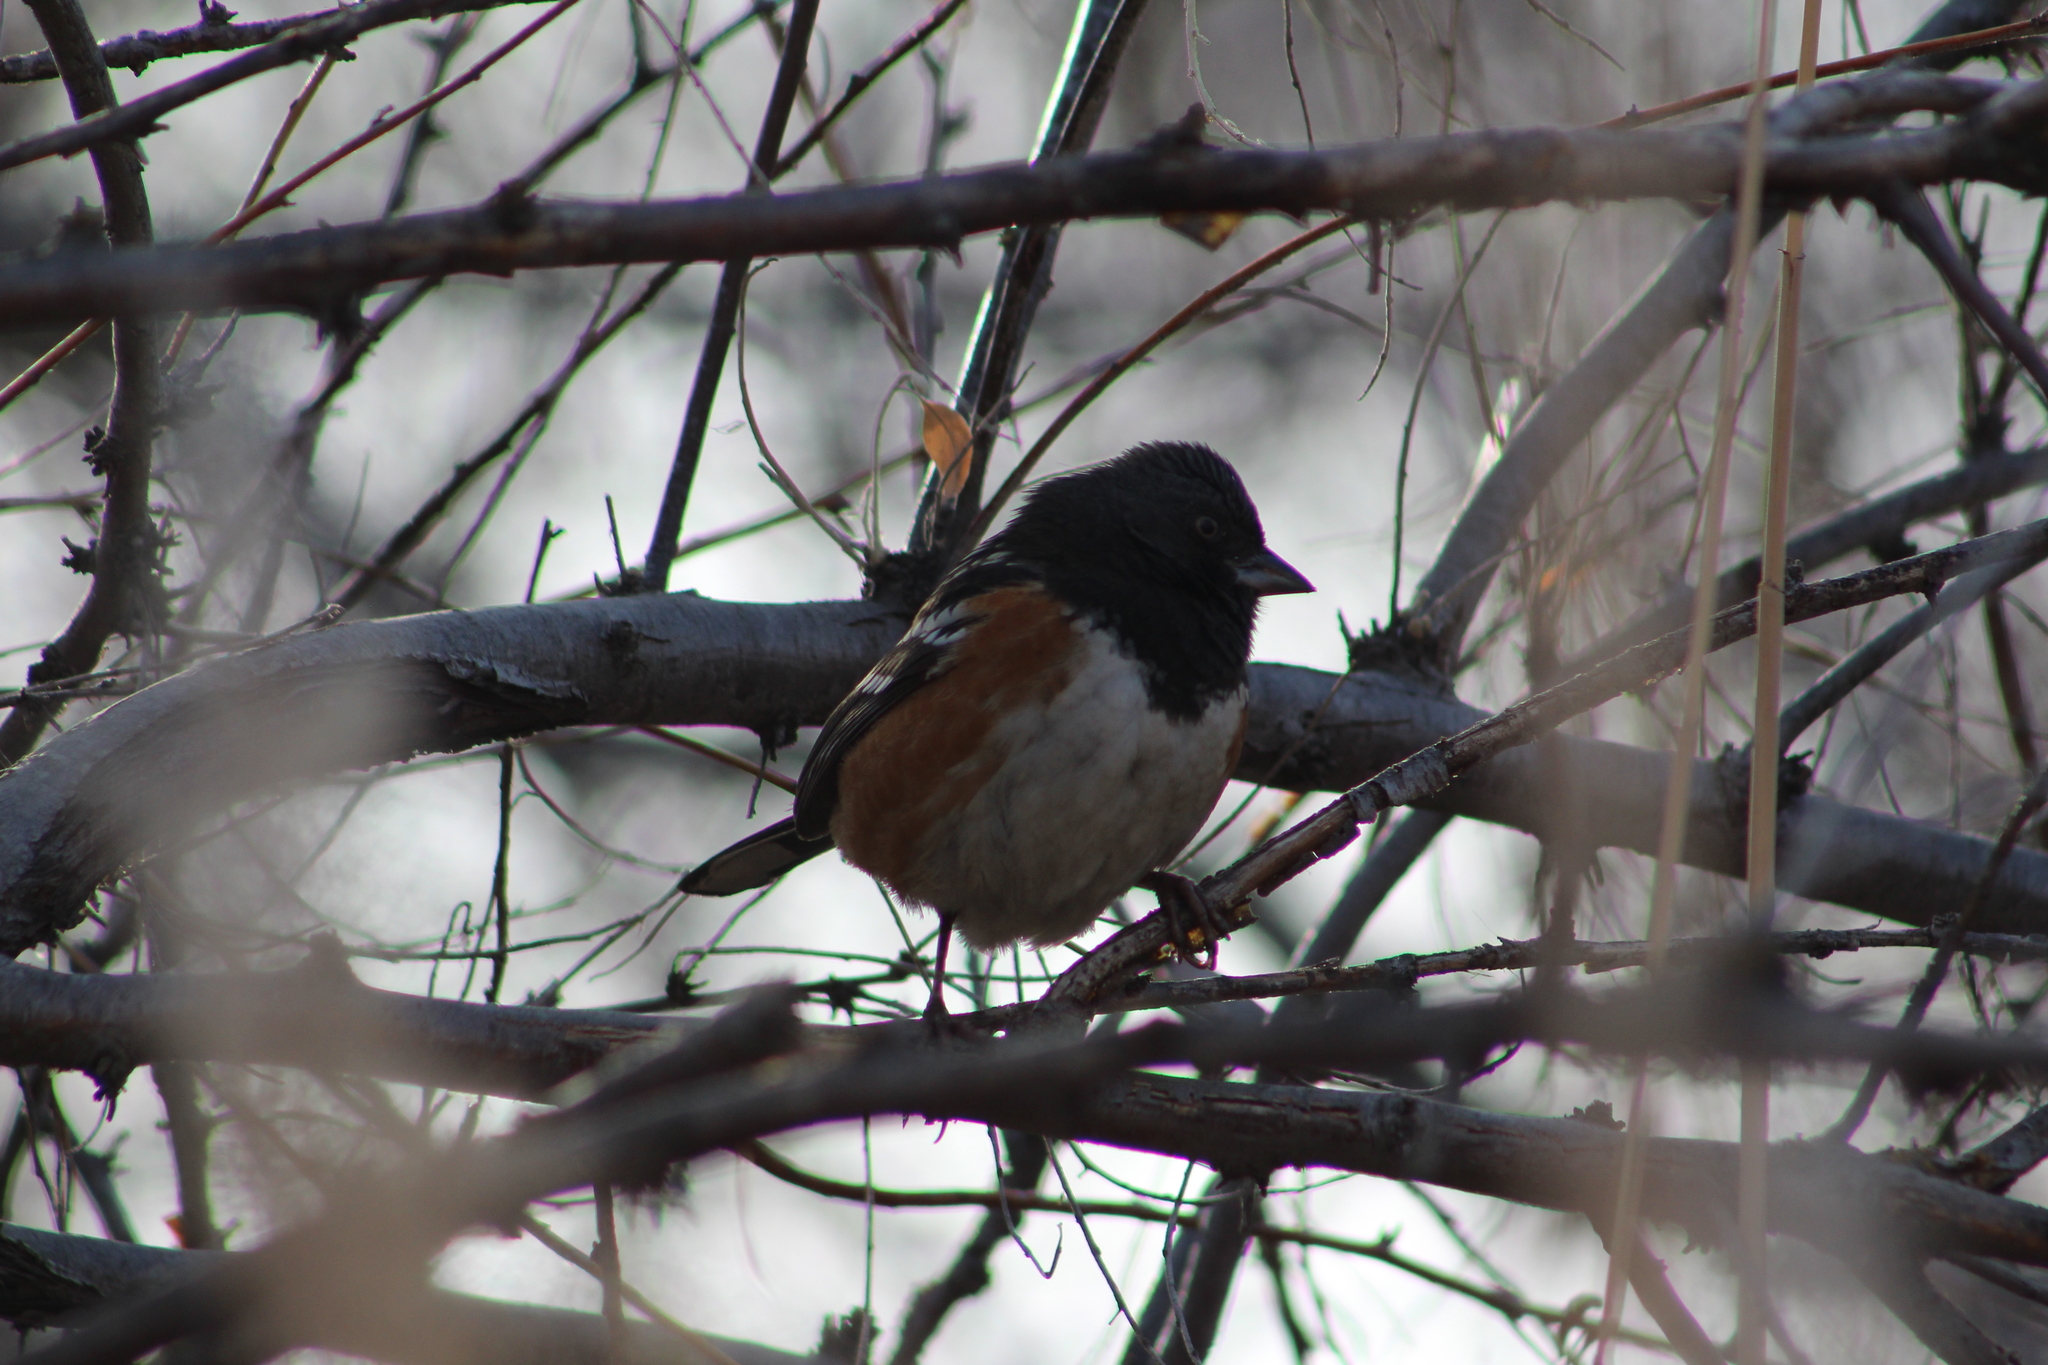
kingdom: Animalia
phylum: Chordata
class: Aves
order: Passeriformes
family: Passerellidae
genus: Pipilo
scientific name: Pipilo maculatus
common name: Spotted towhee
